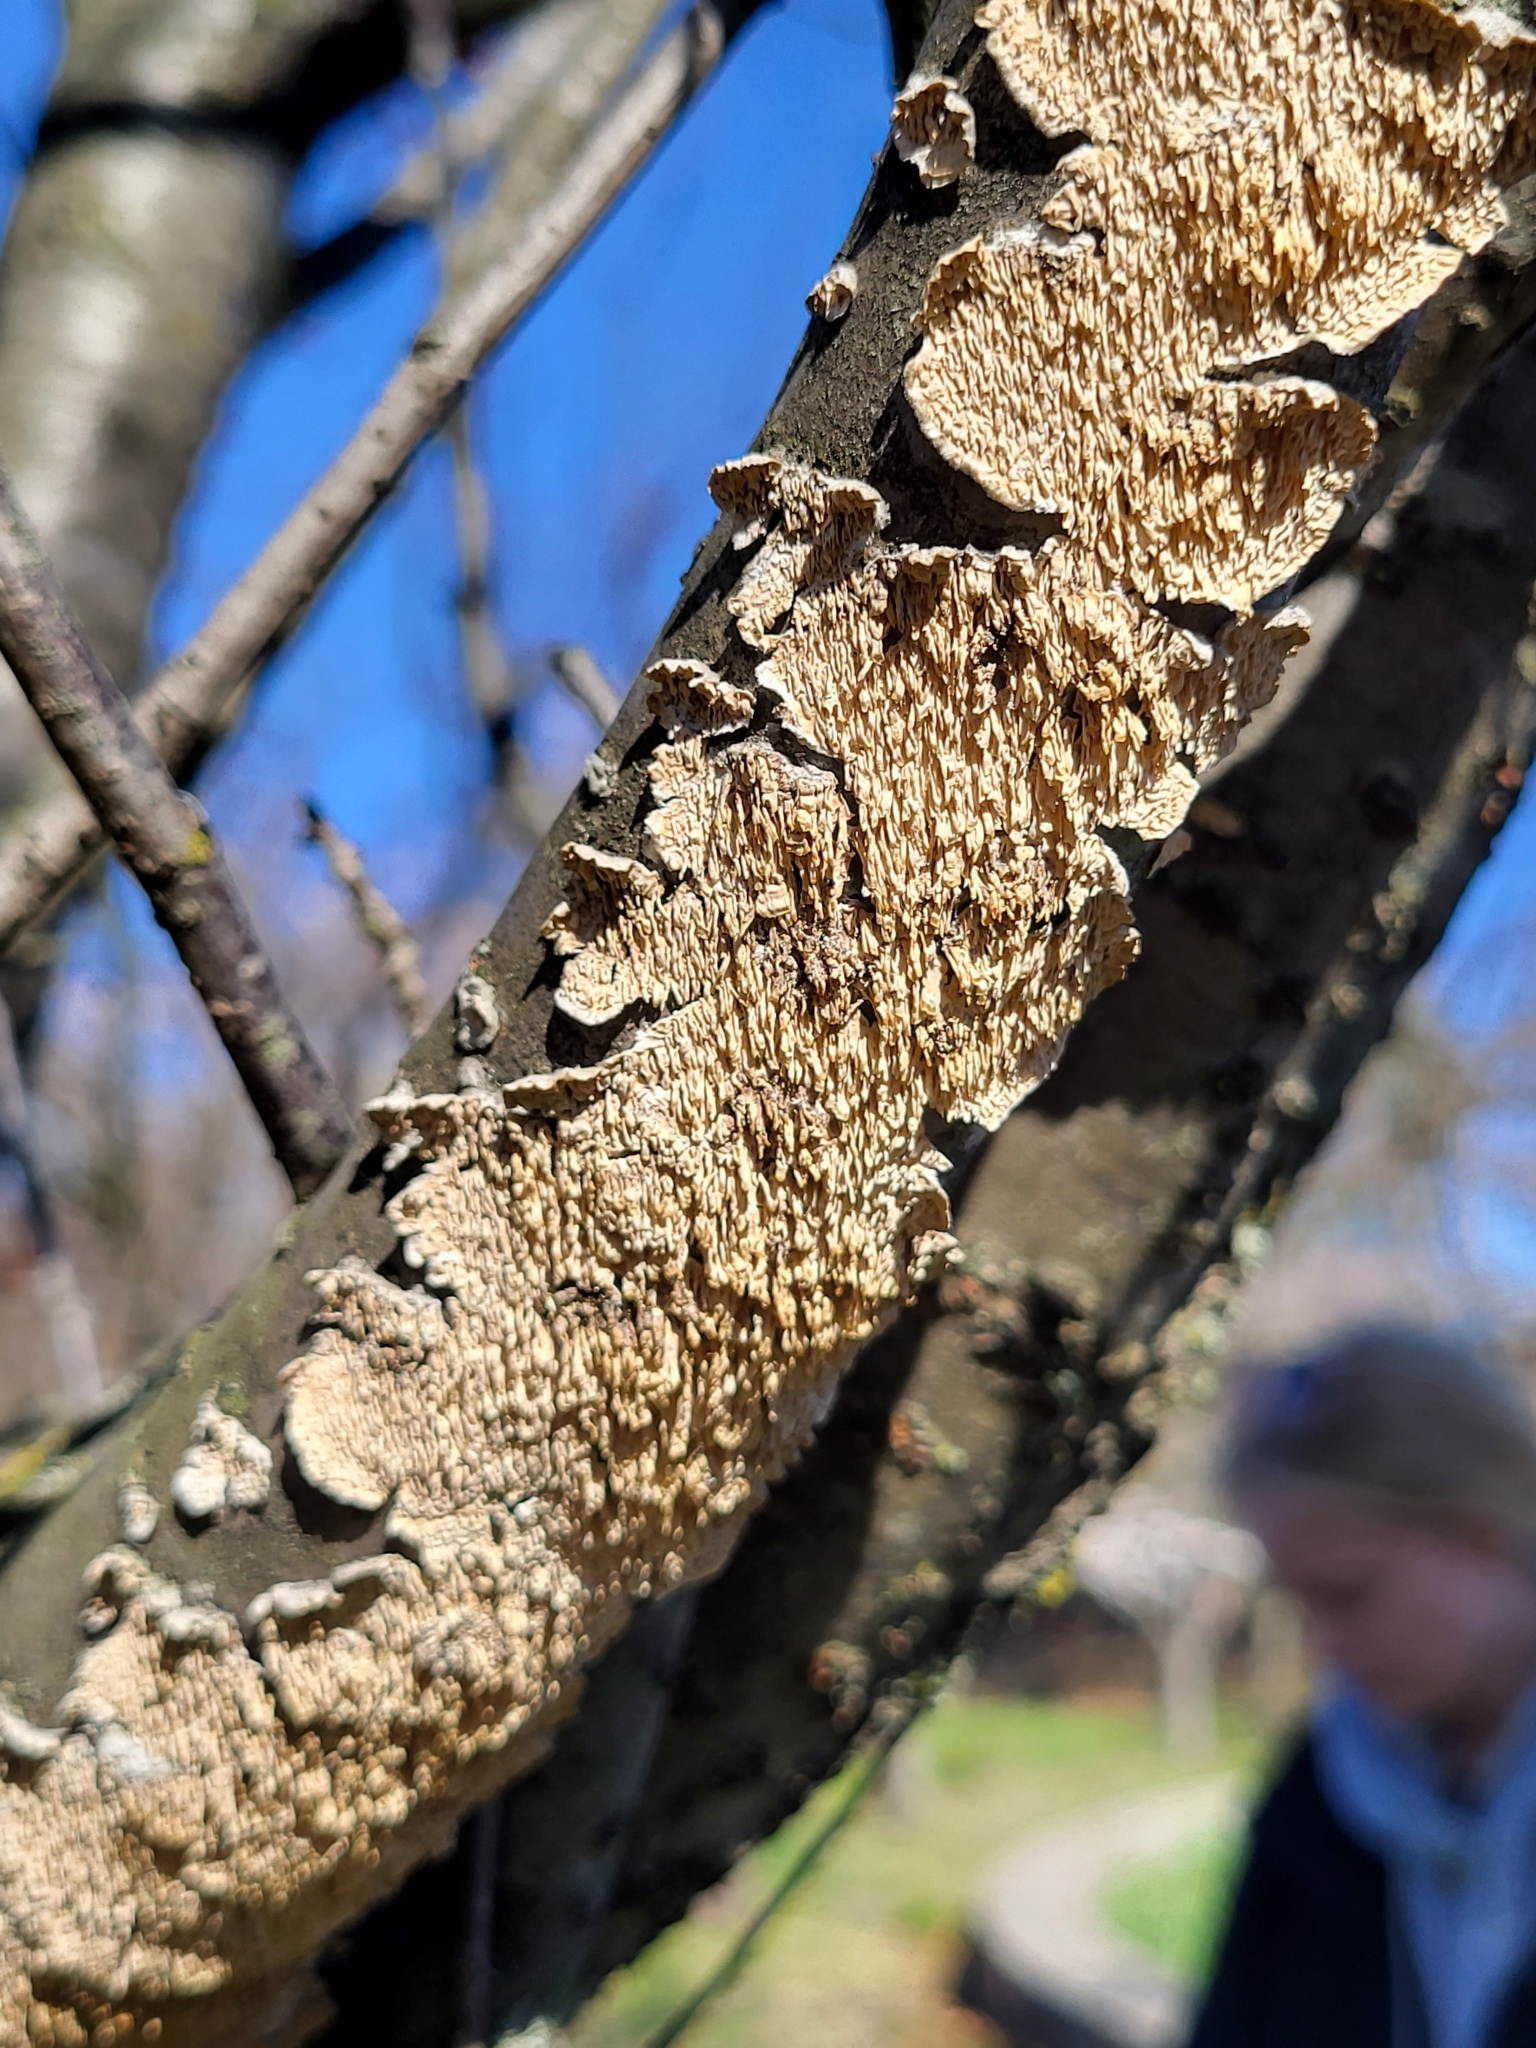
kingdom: Fungi
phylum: Basidiomycota
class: Agaricomycetes
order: Polyporales
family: Irpicaceae
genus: Irpex
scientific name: Irpex lacteus
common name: Milk-white toothed polypore
